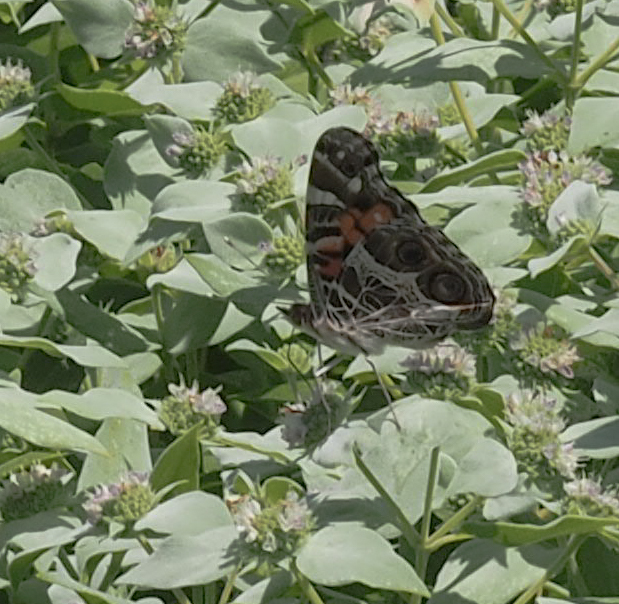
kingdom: Animalia
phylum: Arthropoda
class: Insecta
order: Lepidoptera
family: Nymphalidae
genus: Vanessa
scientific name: Vanessa virginiensis
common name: American lady
